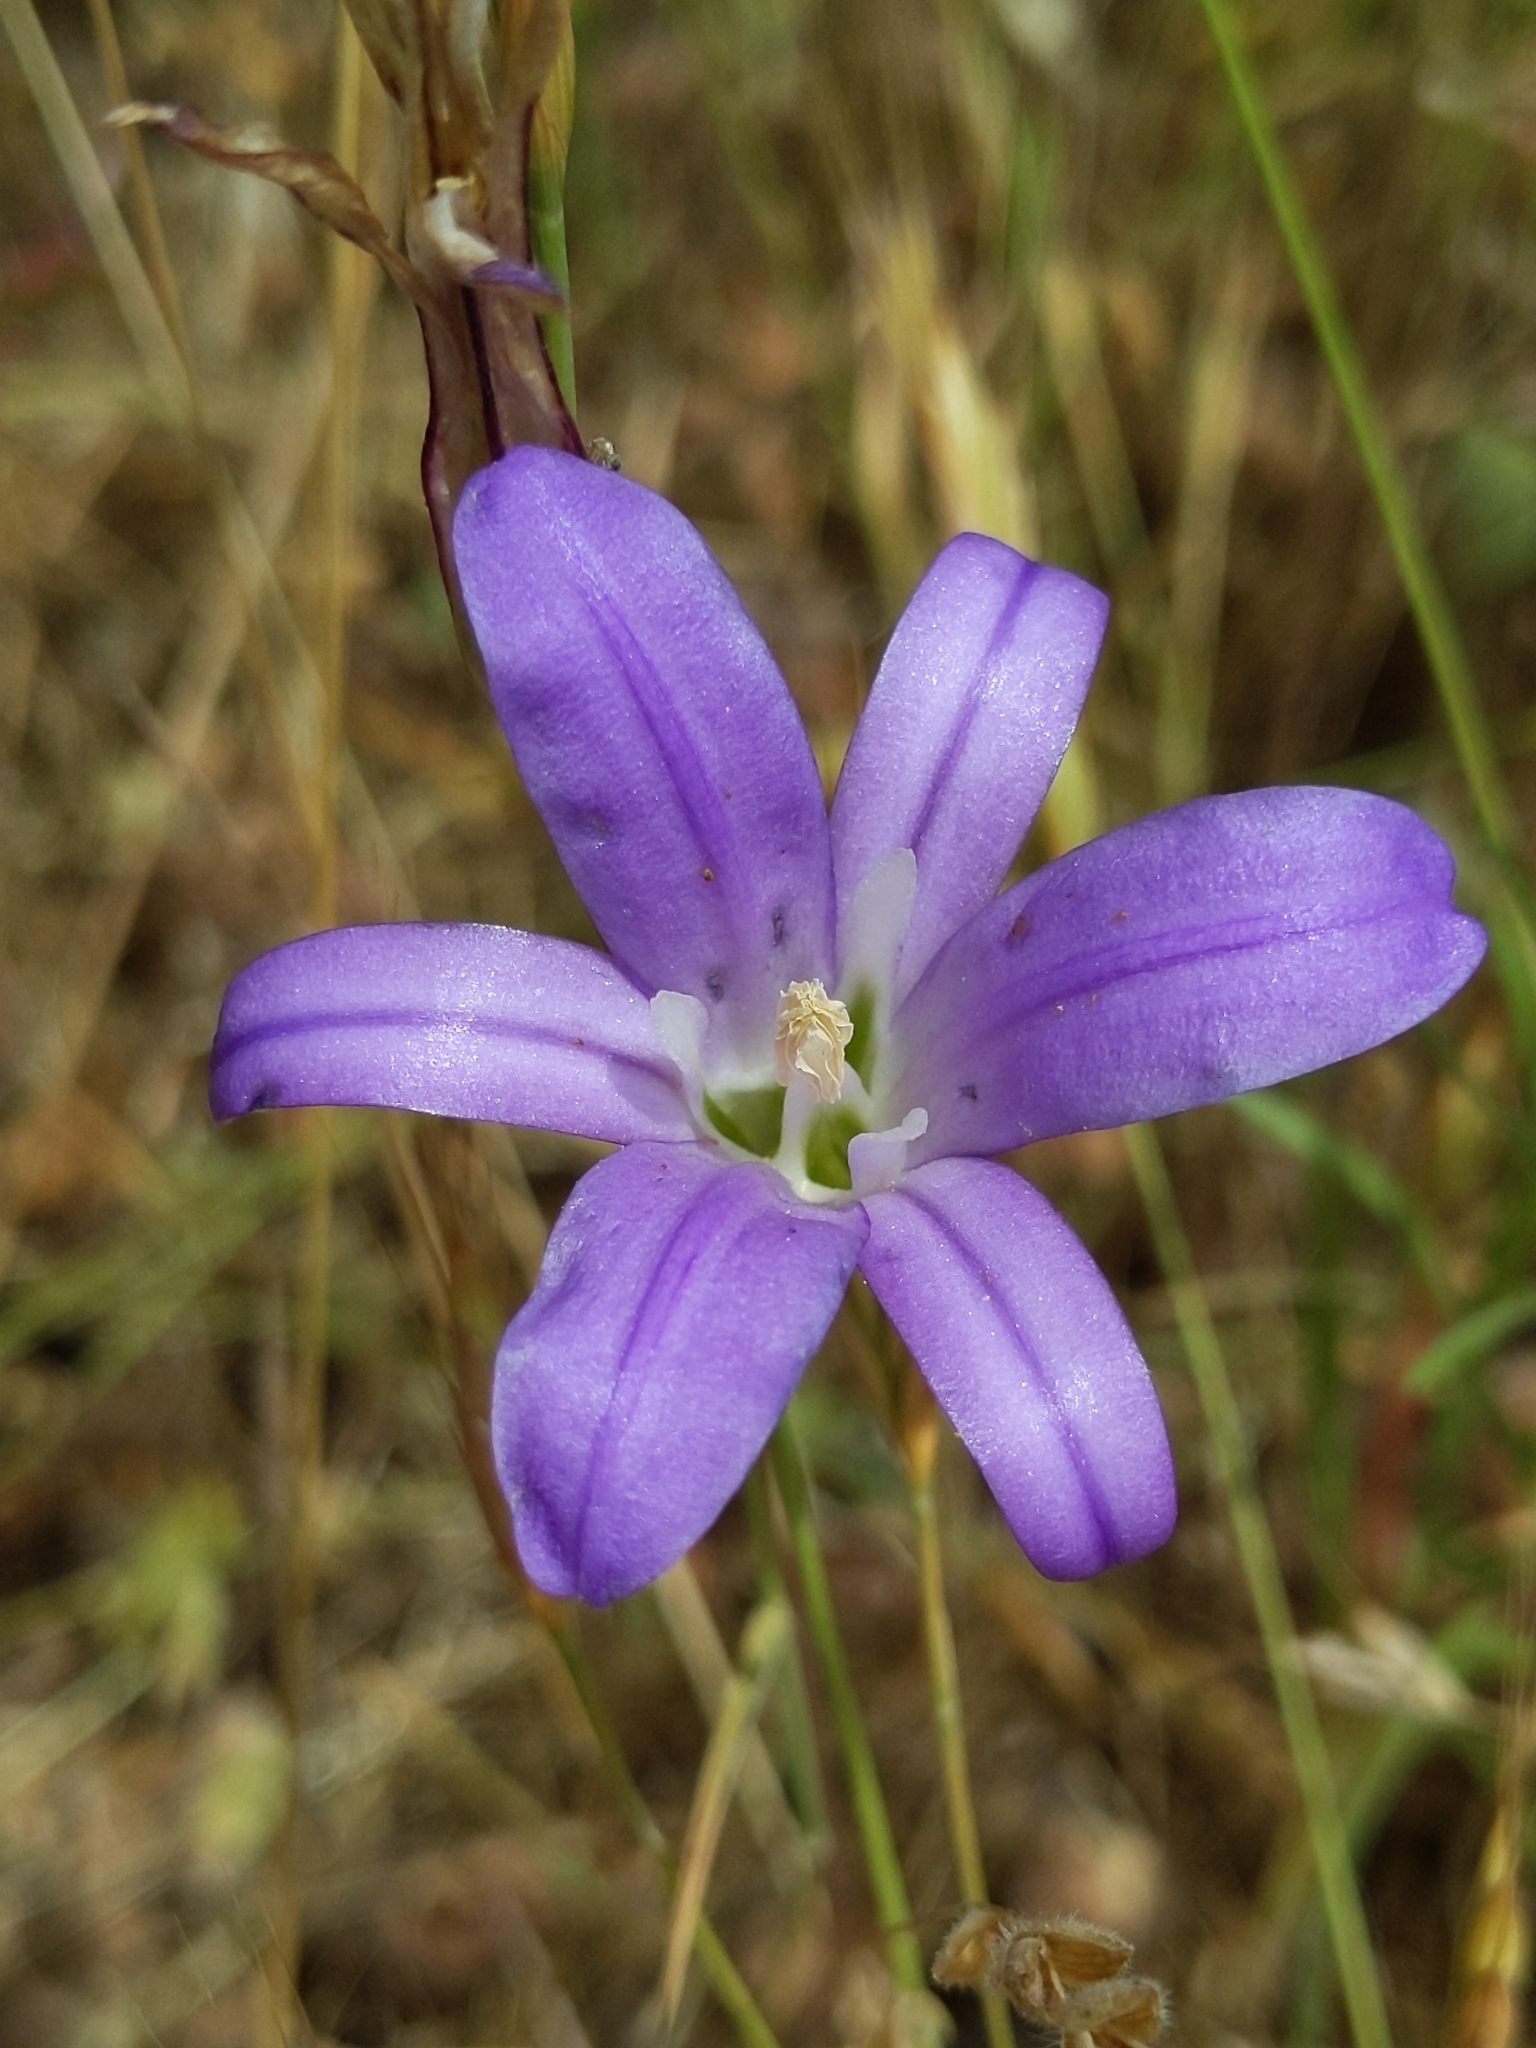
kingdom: Plantae
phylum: Tracheophyta
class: Liliopsida
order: Asparagales
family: Asparagaceae
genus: Brodiaea
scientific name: Brodiaea elegans
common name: Elegant cluster-lily
